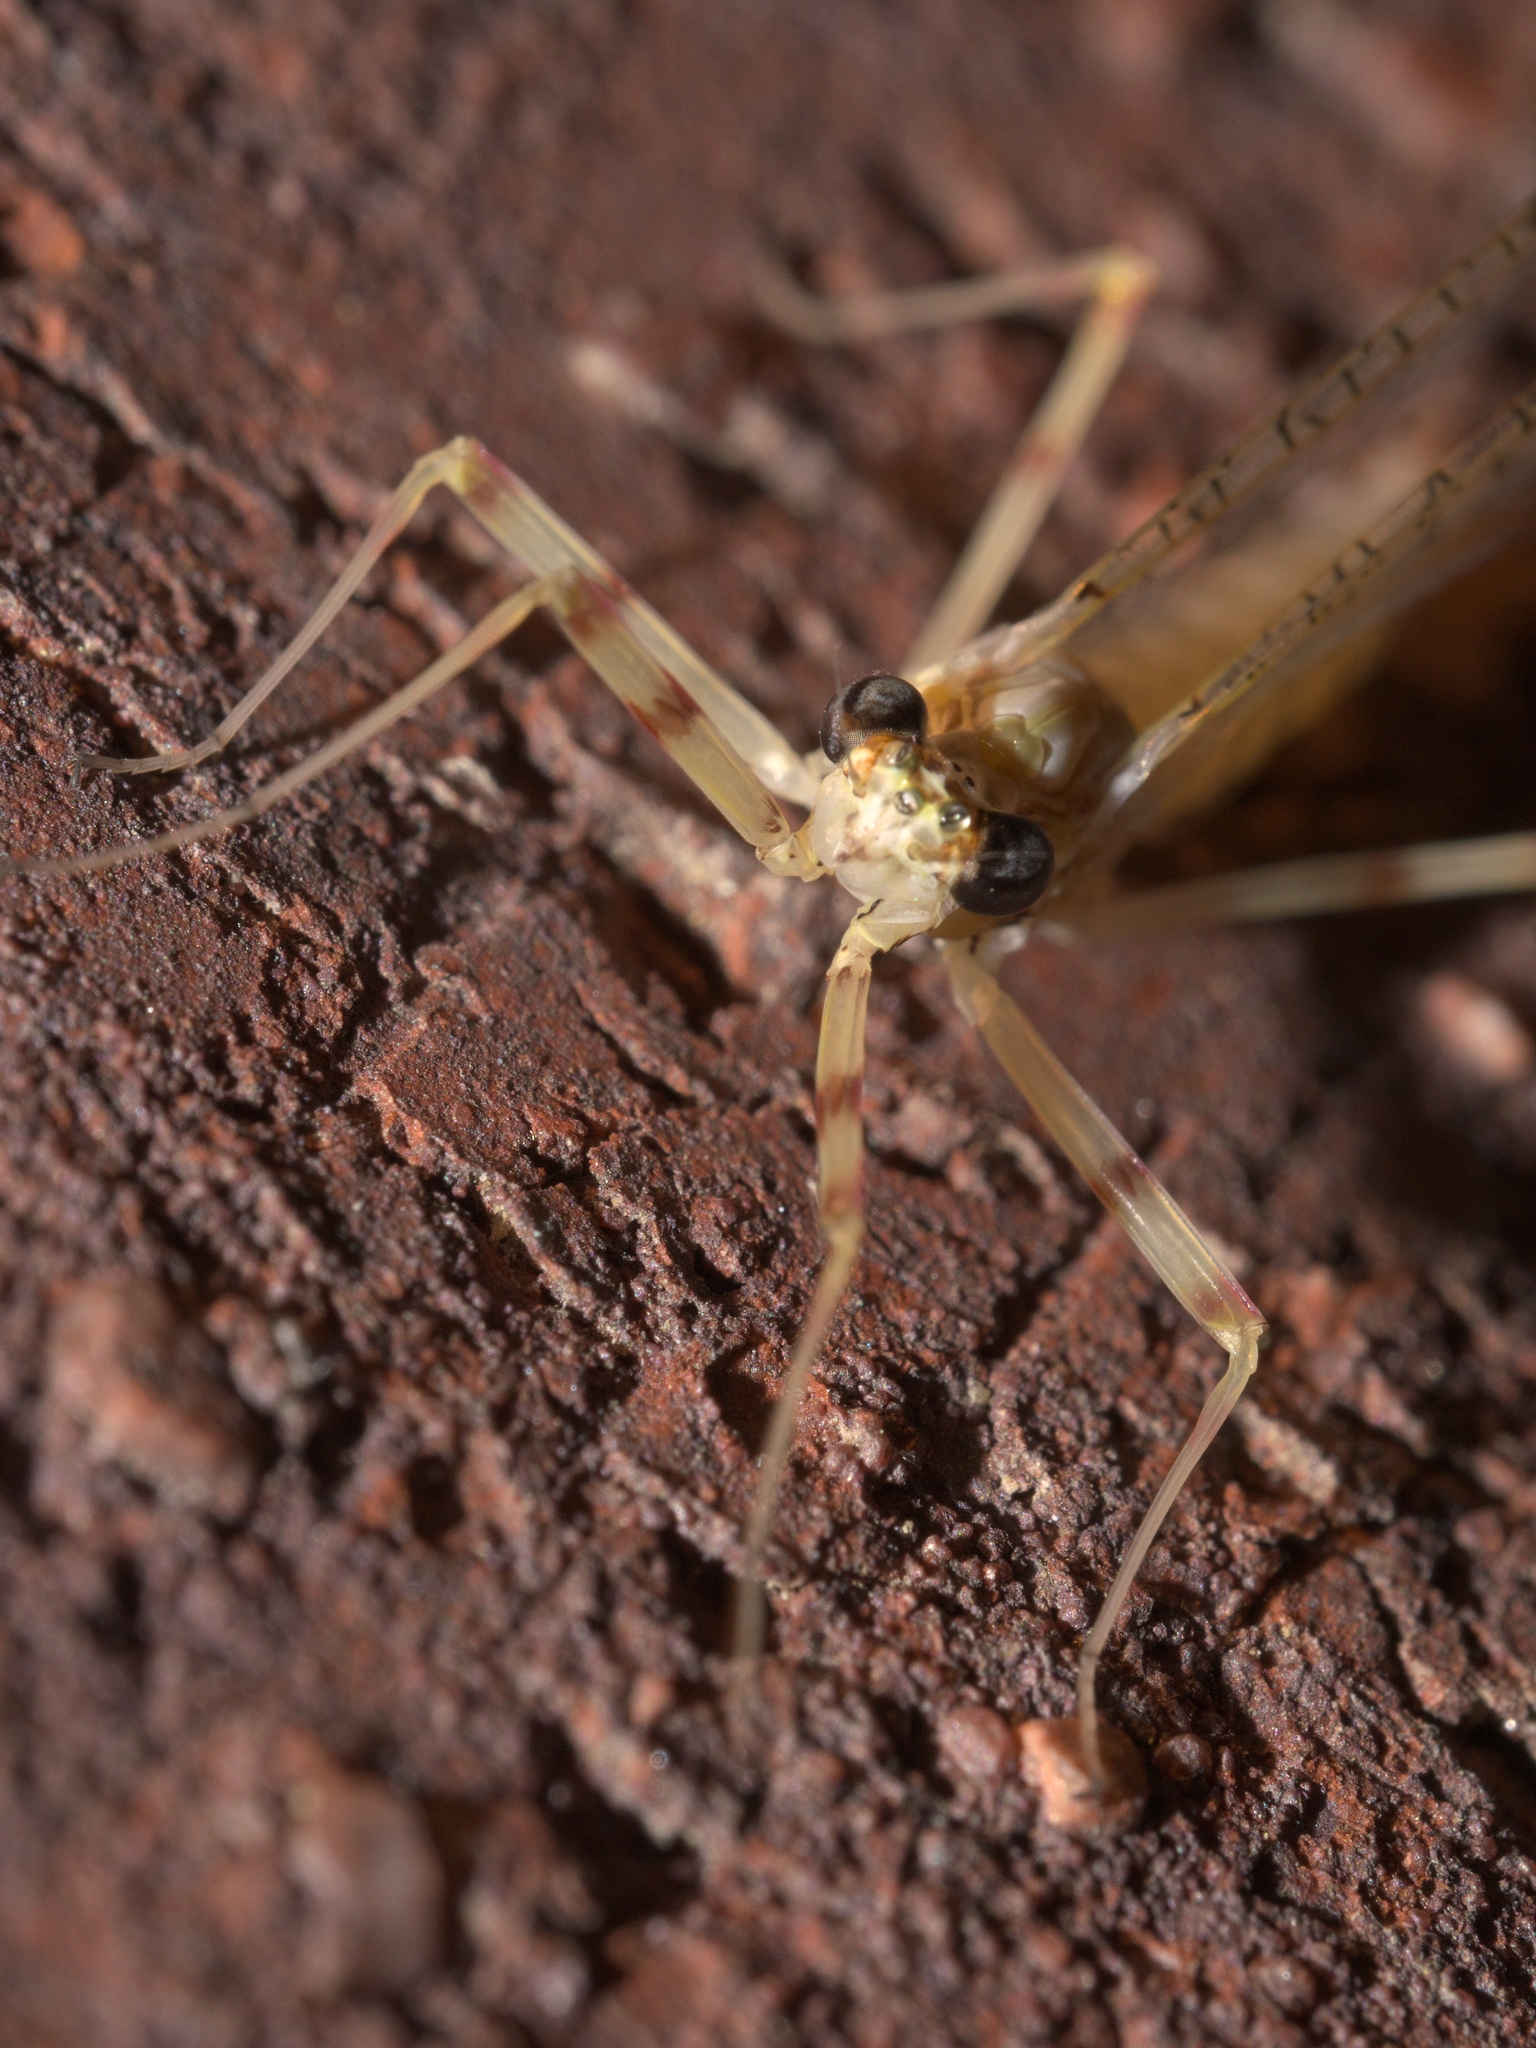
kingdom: Animalia
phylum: Arthropoda
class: Insecta
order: Ephemeroptera
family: Heptageniidae
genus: Stenonema
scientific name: Stenonema femoratum
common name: Dark cahill
